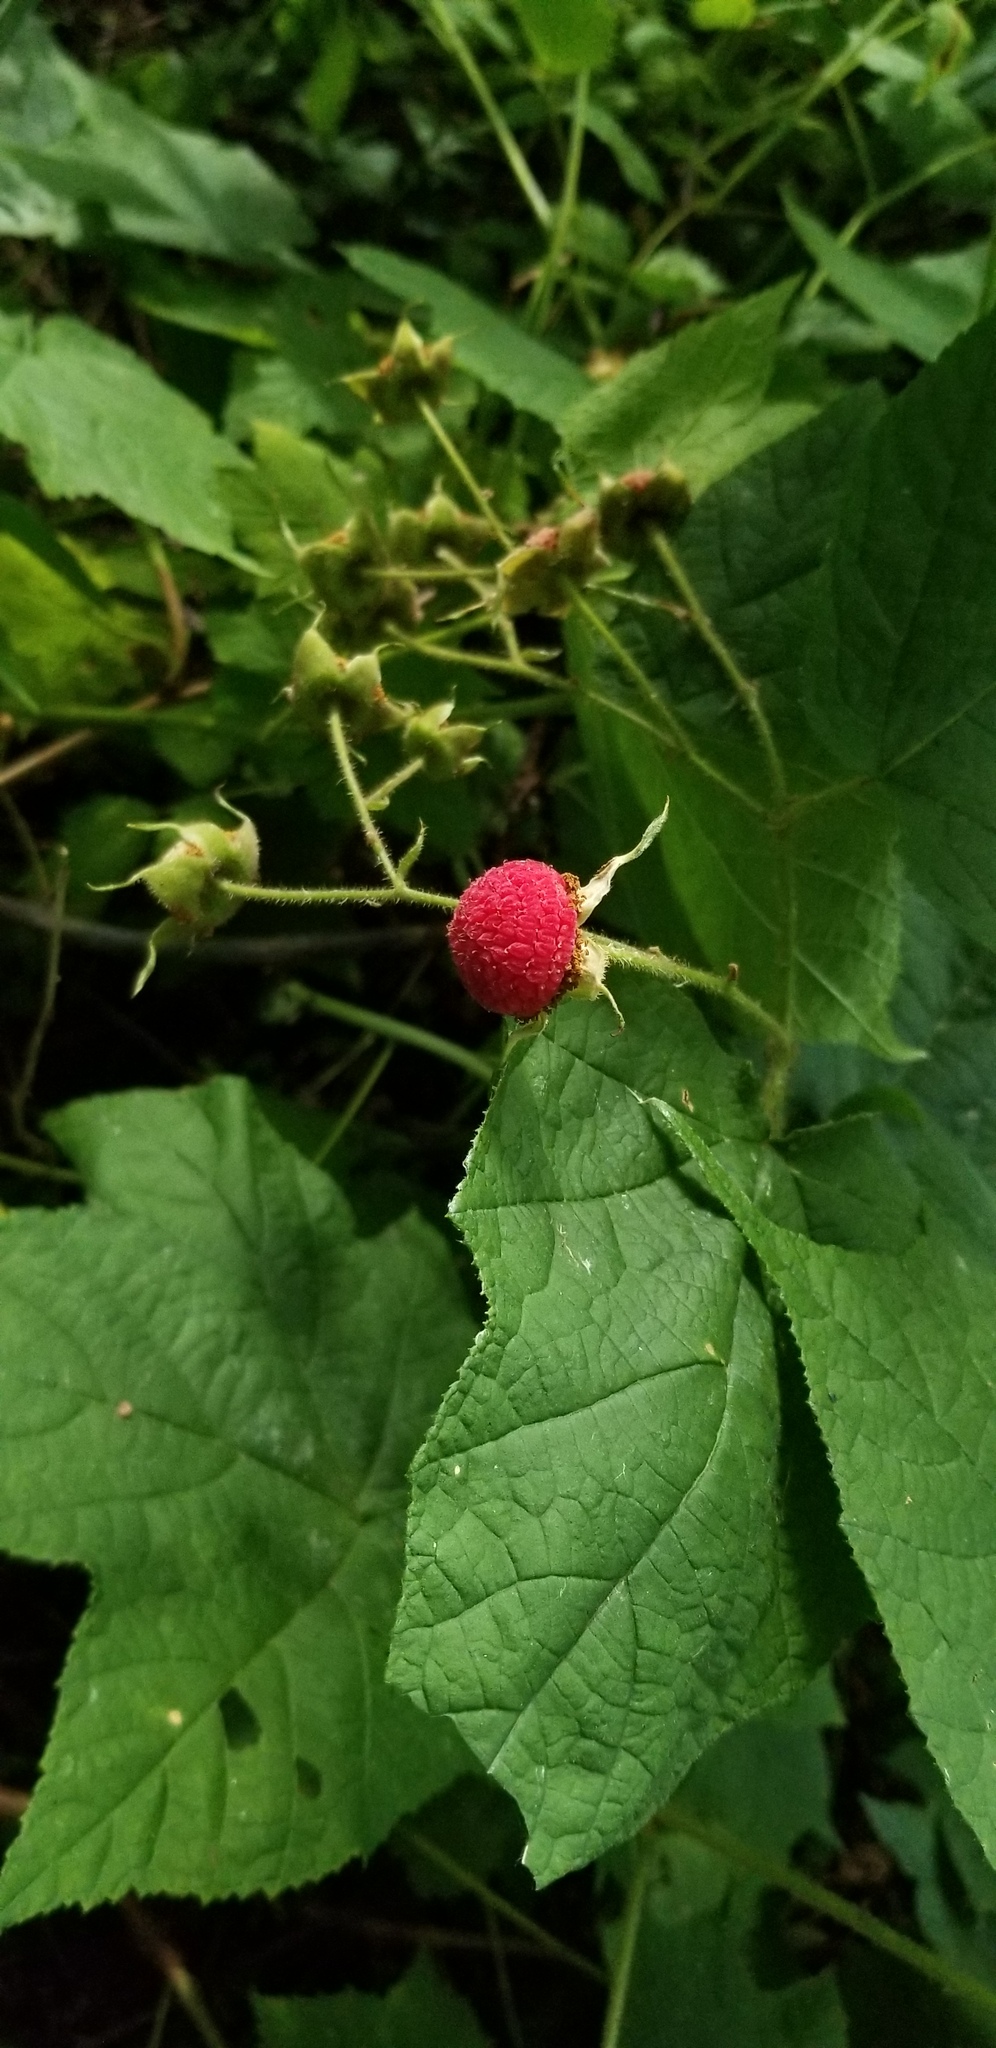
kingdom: Plantae
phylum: Tracheophyta
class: Magnoliopsida
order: Rosales
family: Rosaceae
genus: Rubus
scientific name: Rubus odoratus
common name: Purple-flowered raspberry
